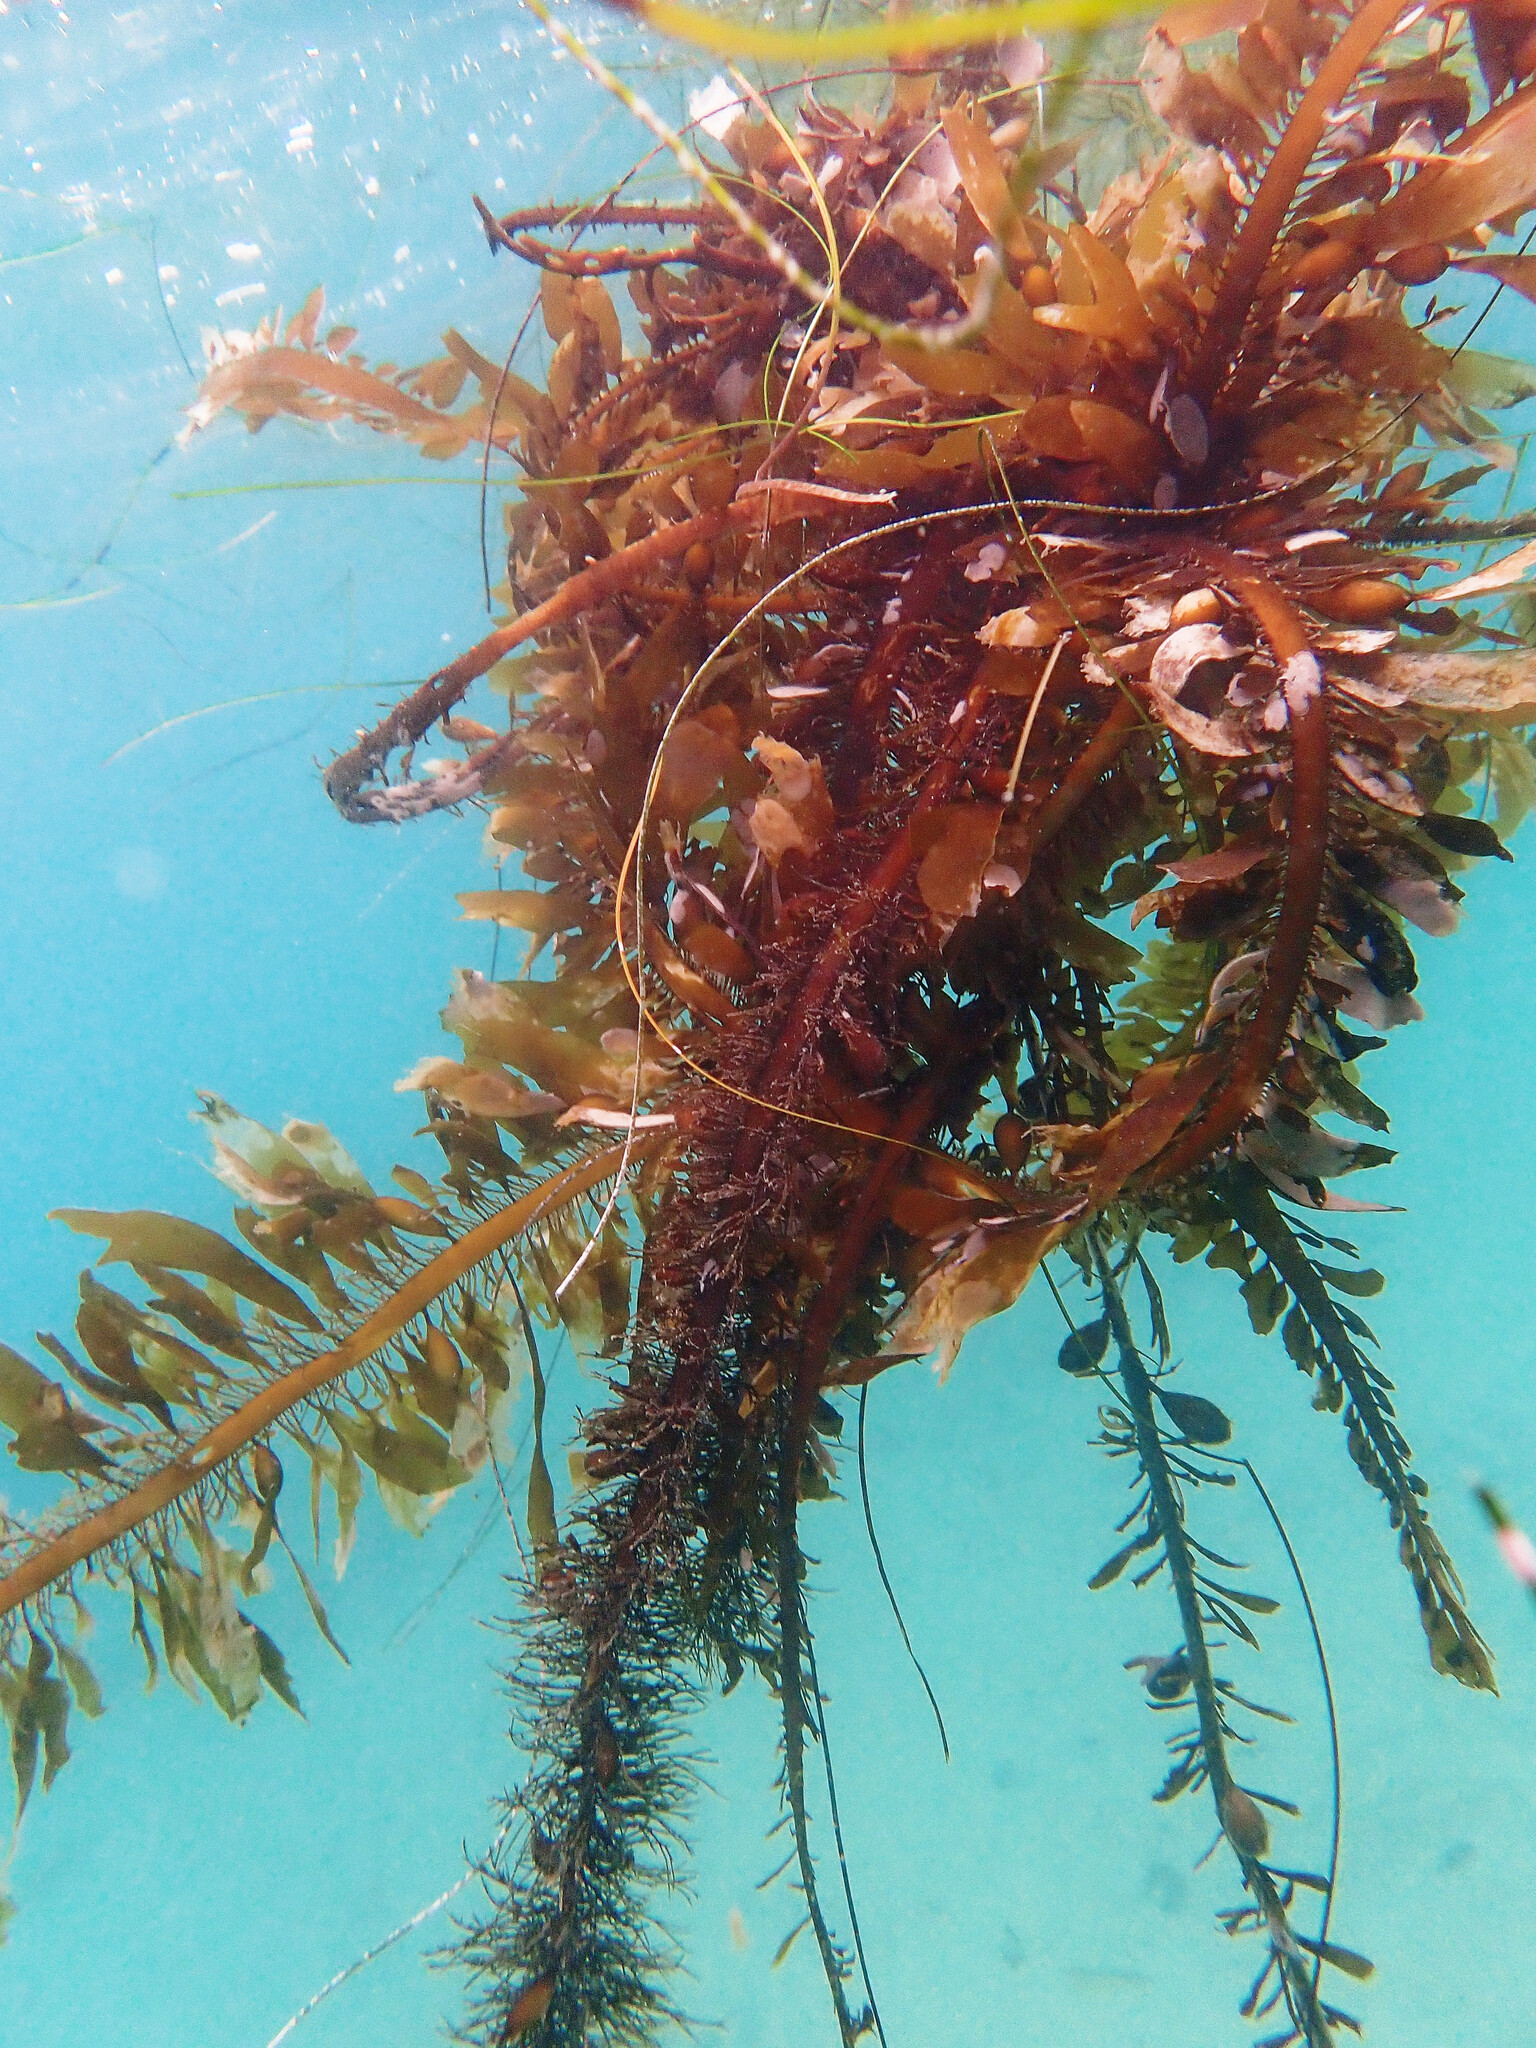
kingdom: Chromista
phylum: Ochrophyta
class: Phaeophyceae
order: Laminariales
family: Lessoniaceae
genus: Egregia
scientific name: Egregia menziesii
